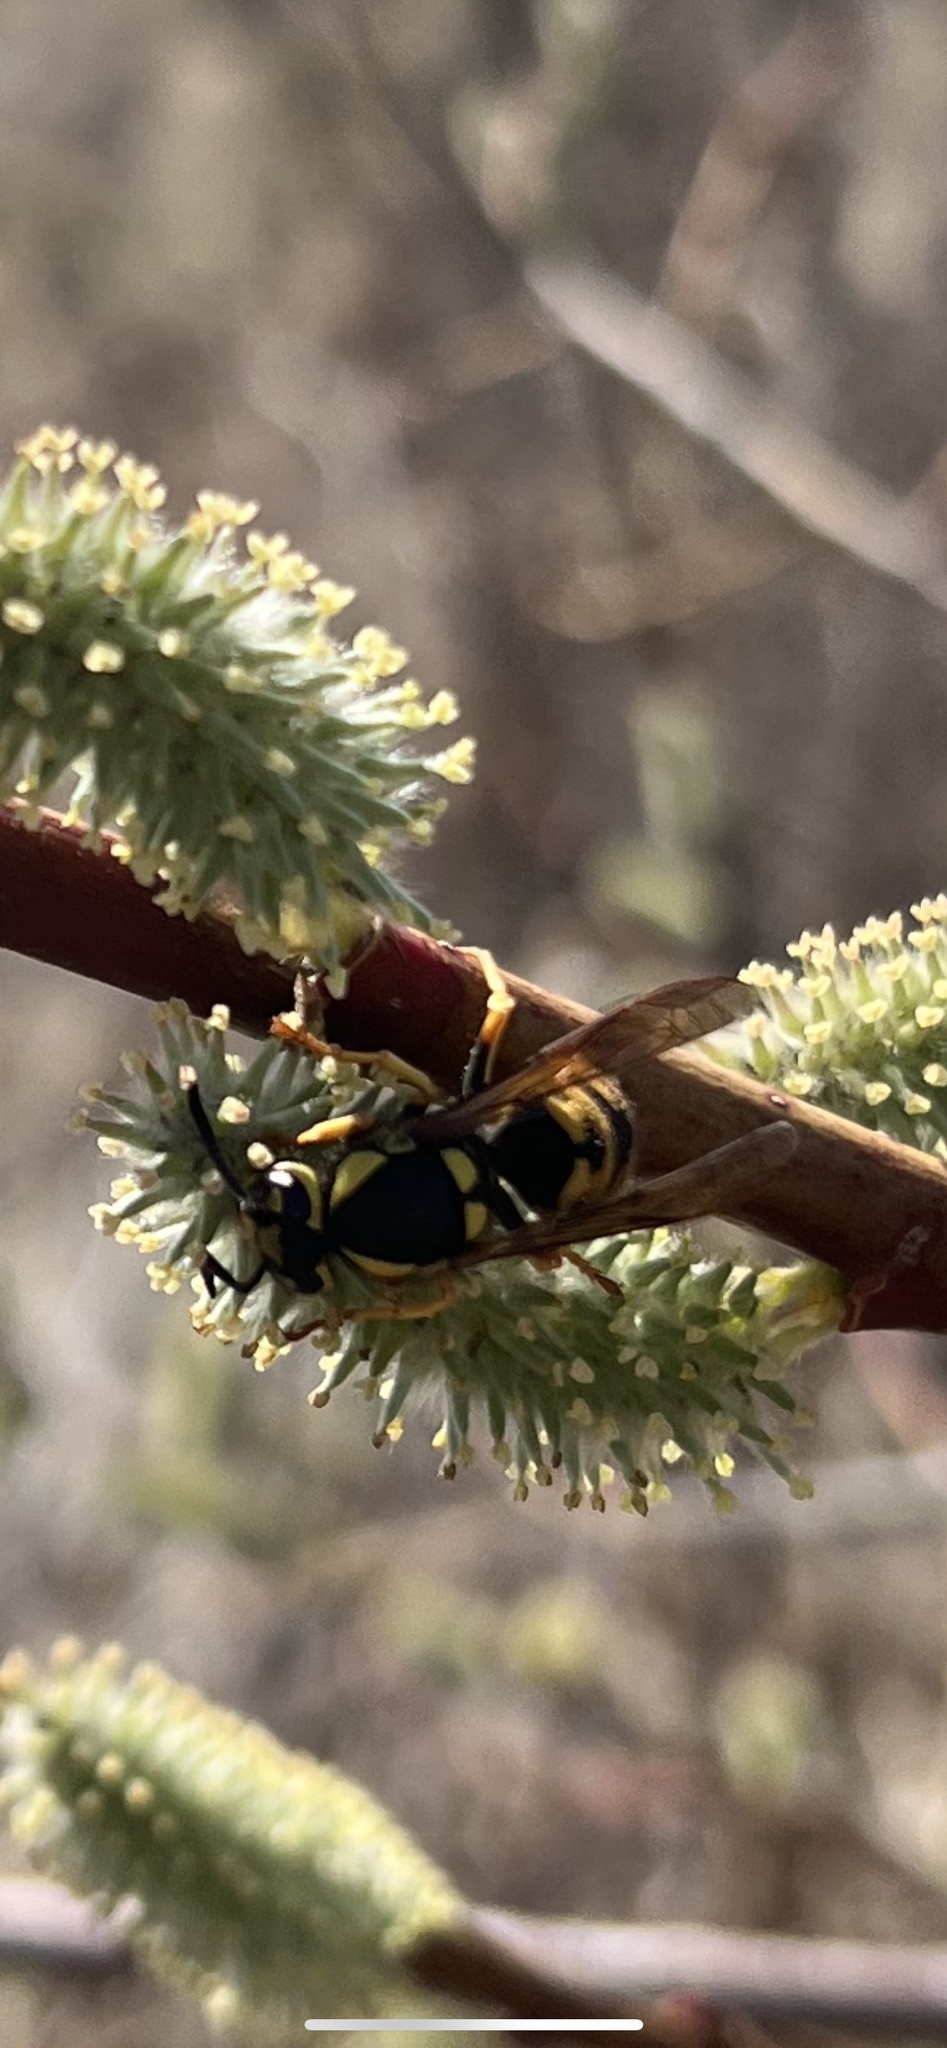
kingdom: Animalia
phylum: Arthropoda
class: Insecta
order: Hymenoptera
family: Vespidae
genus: Vespula
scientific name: Vespula atropilosa
